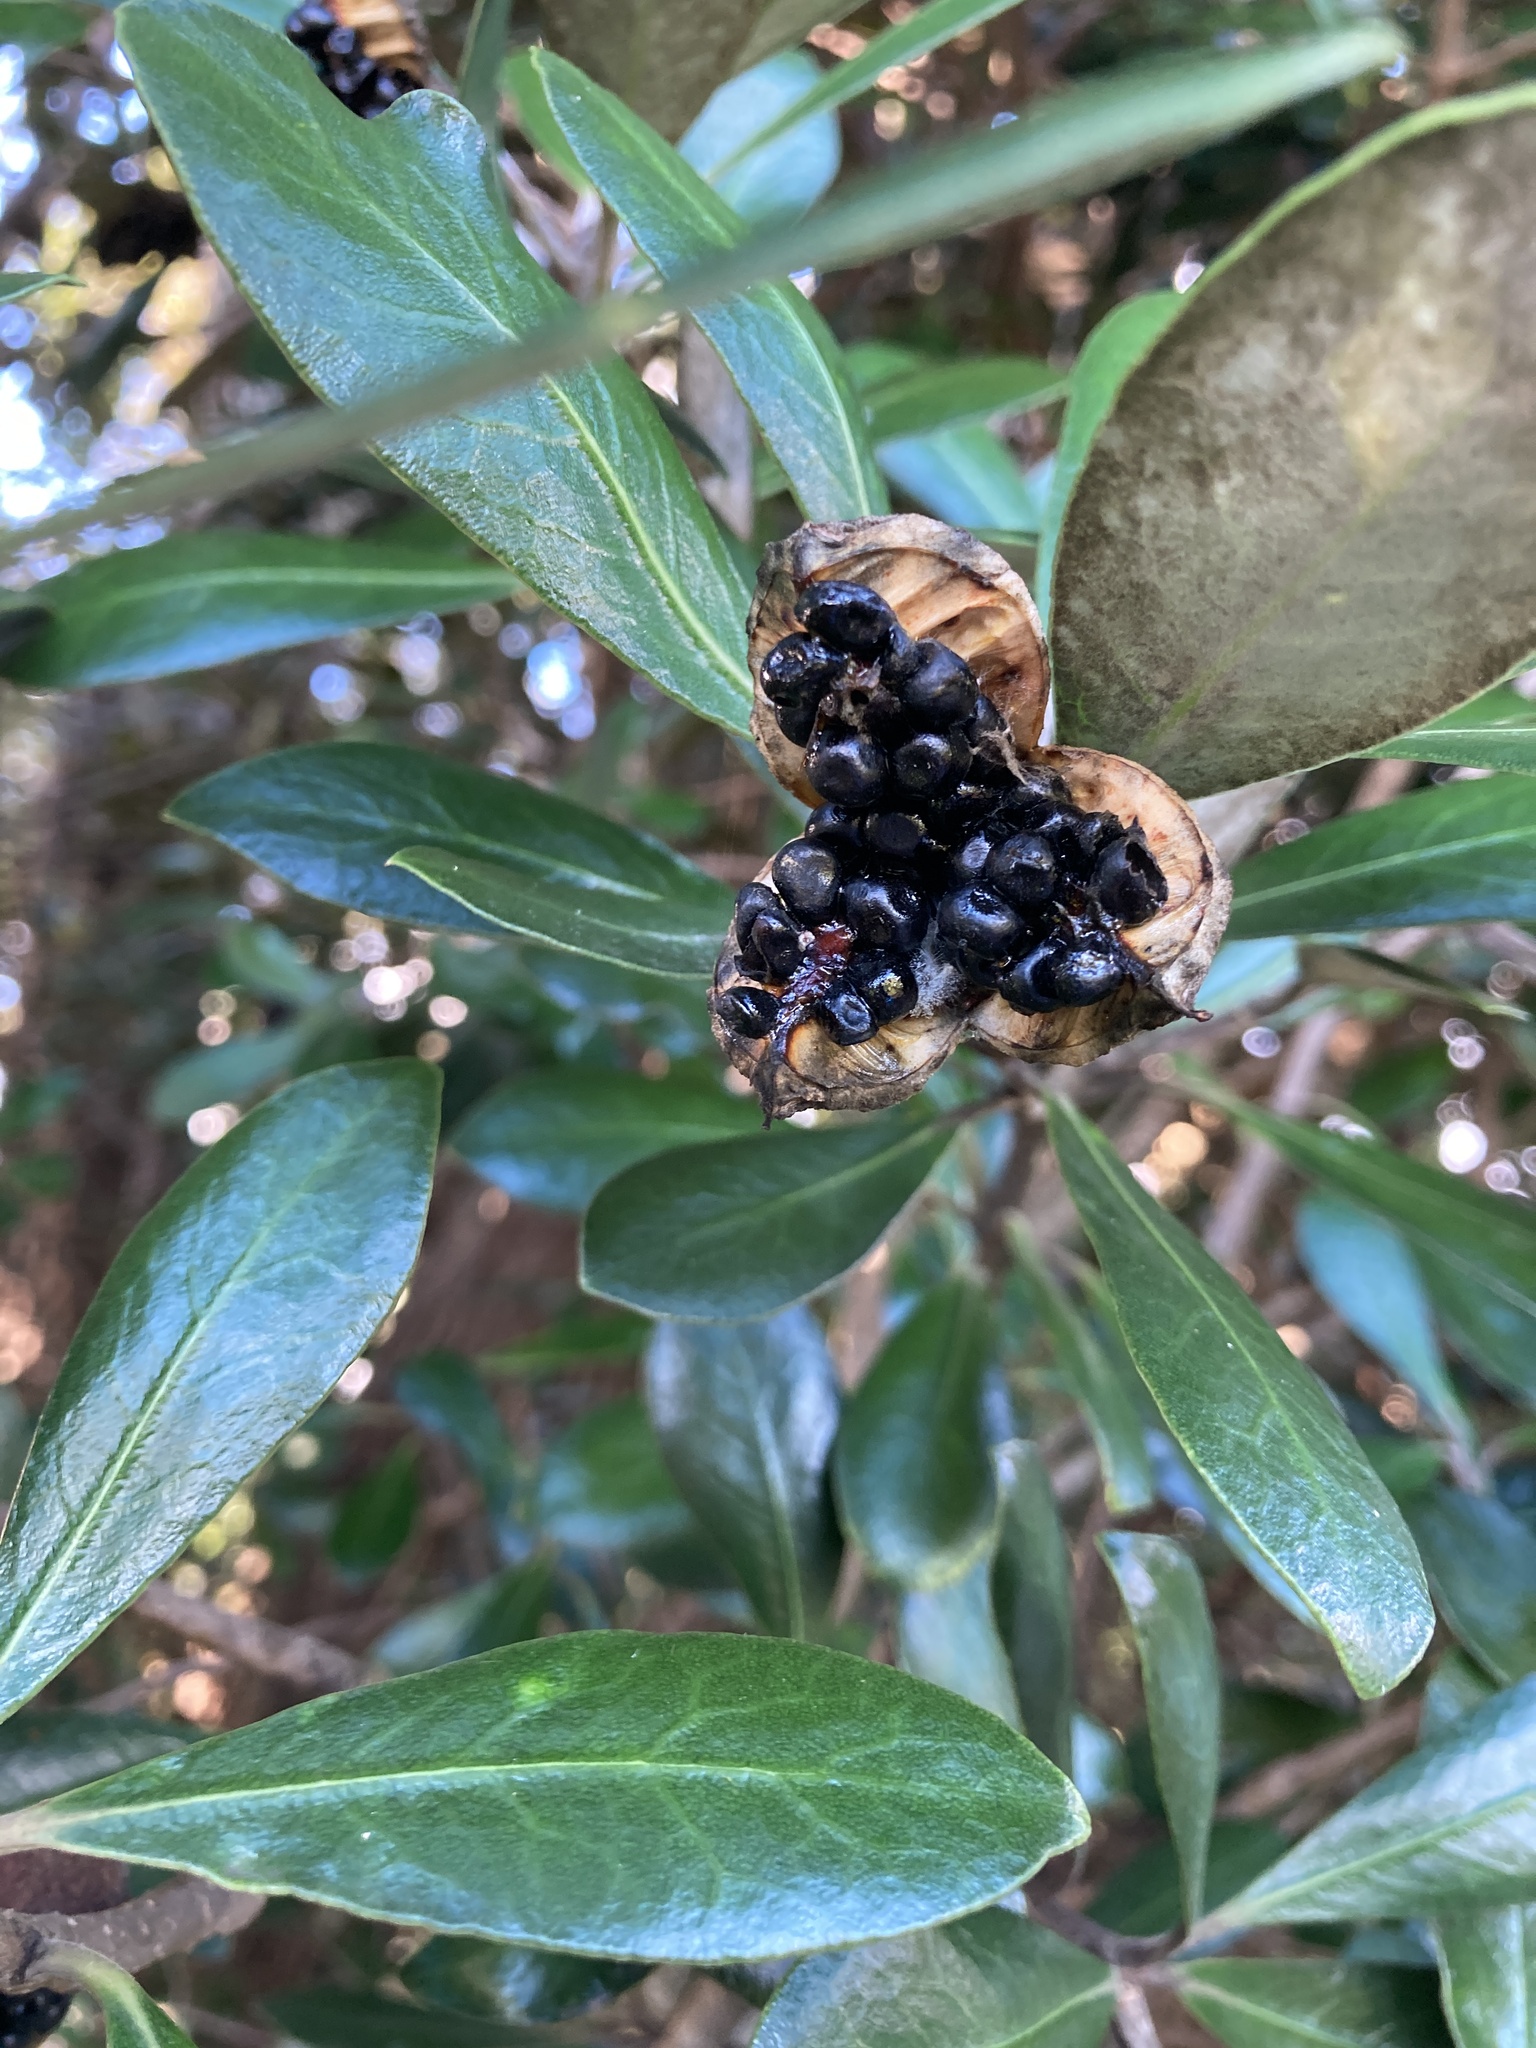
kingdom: Plantae
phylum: Tracheophyta
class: Magnoliopsida
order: Apiales
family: Pittosporaceae
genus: Pittosporum
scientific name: Pittosporum crassifolium
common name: Karo
